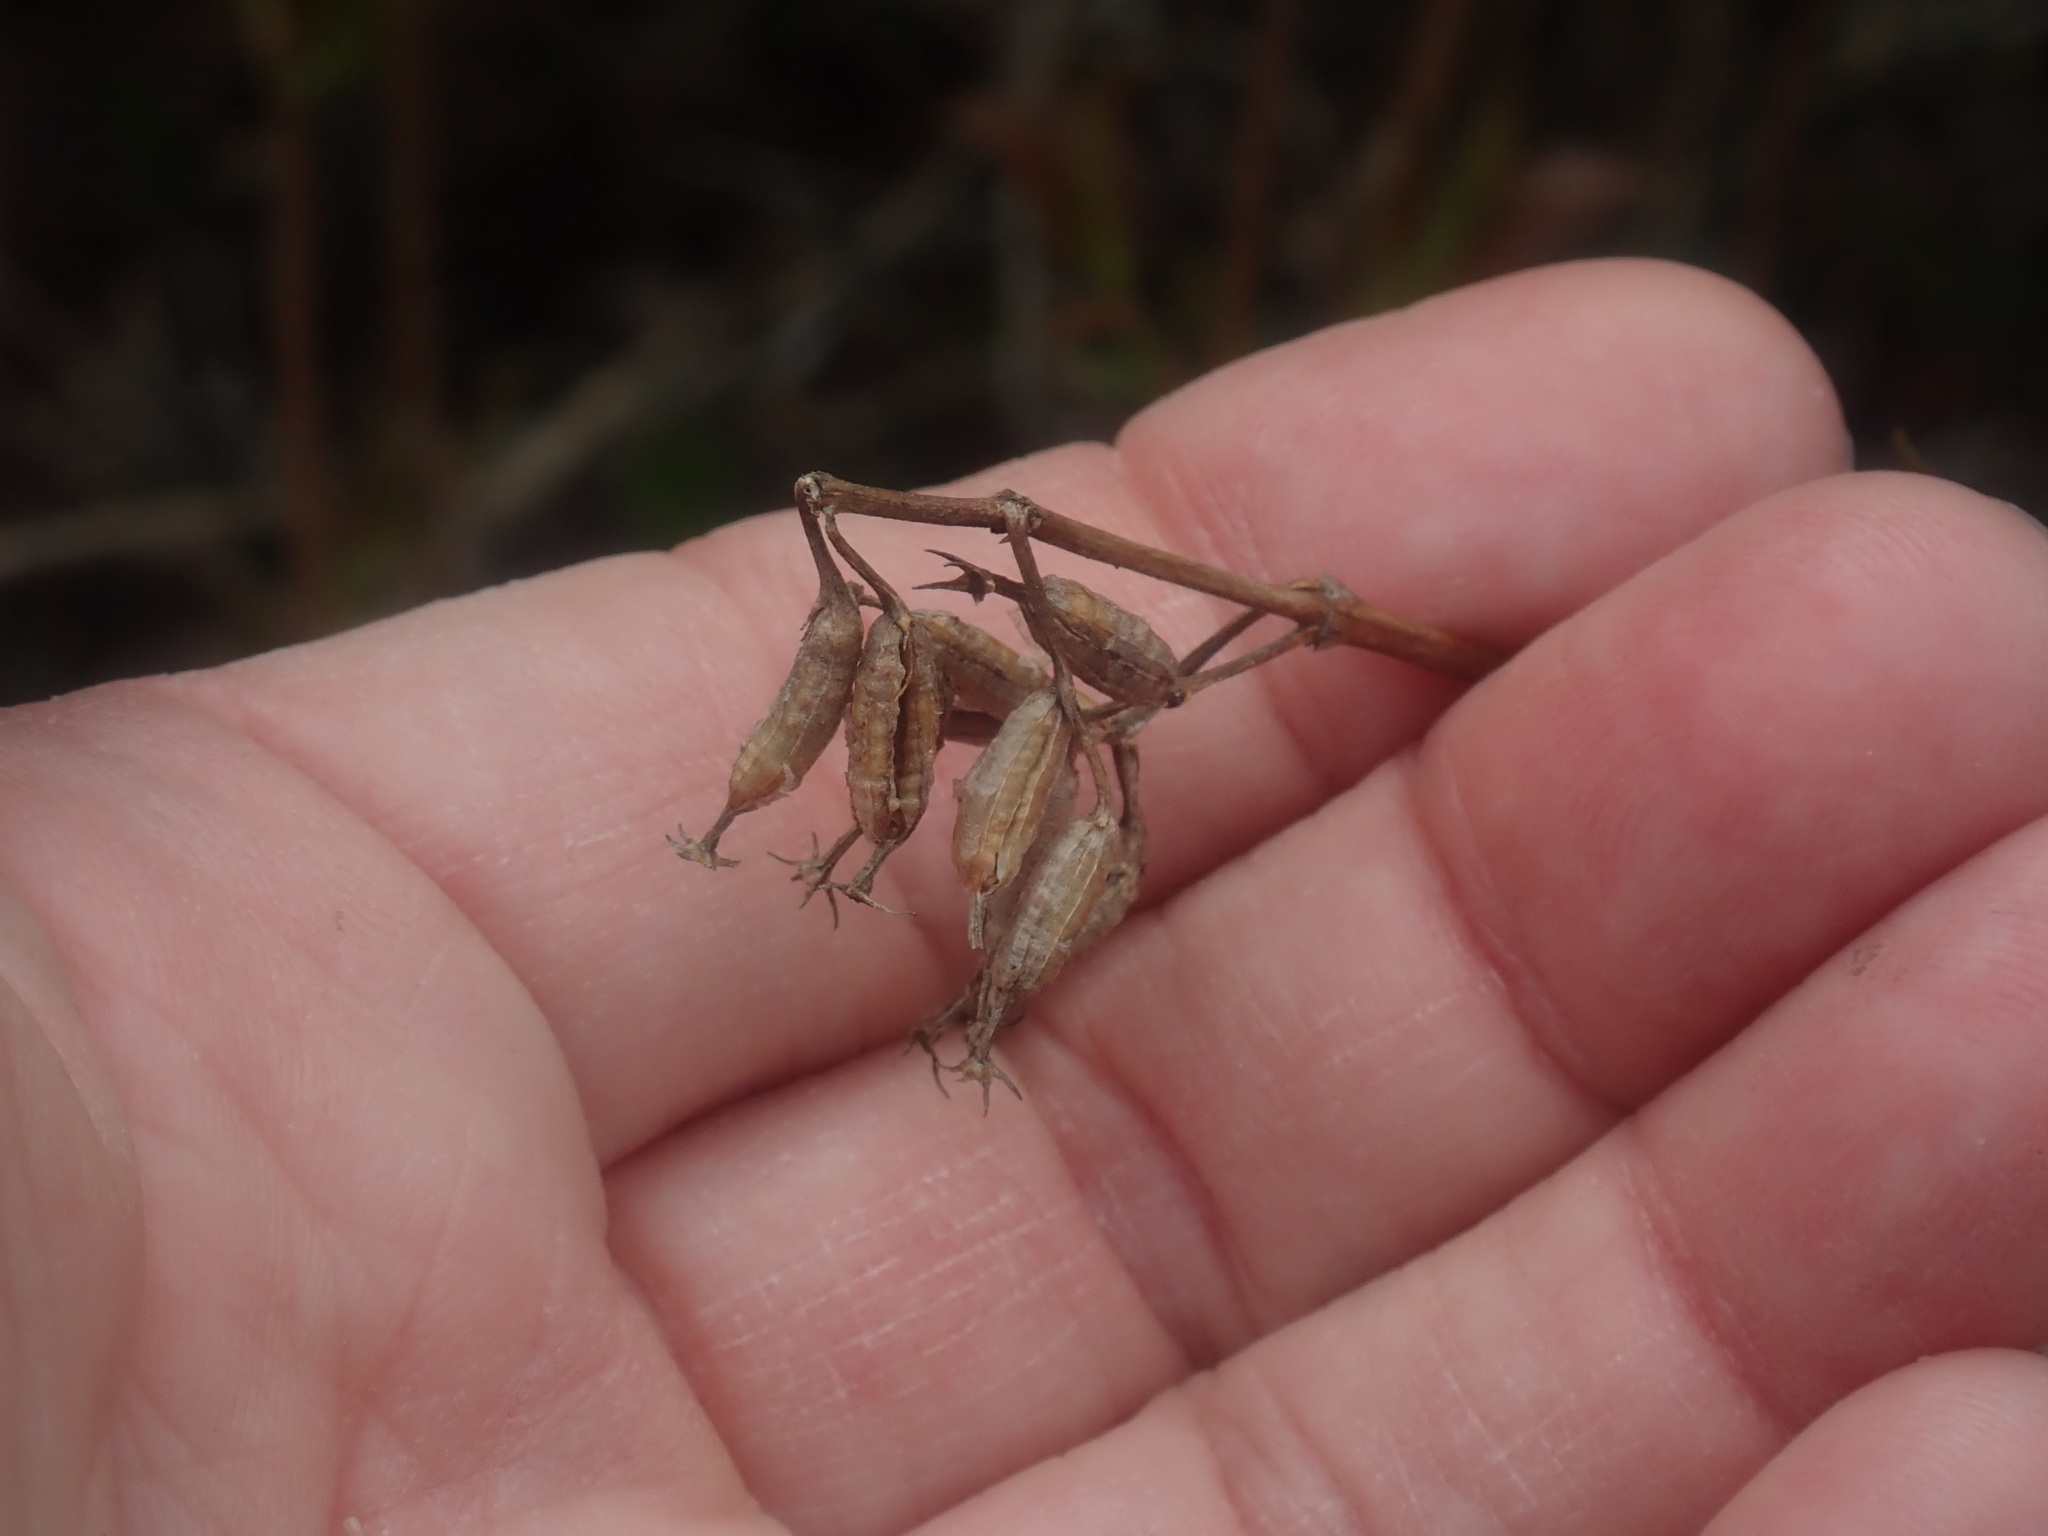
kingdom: Plantae
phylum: Tracheophyta
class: Magnoliopsida
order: Dipsacales
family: Caprifoliaceae
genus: Diervilla
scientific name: Diervilla lonicera
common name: Bush-honeysuckle
